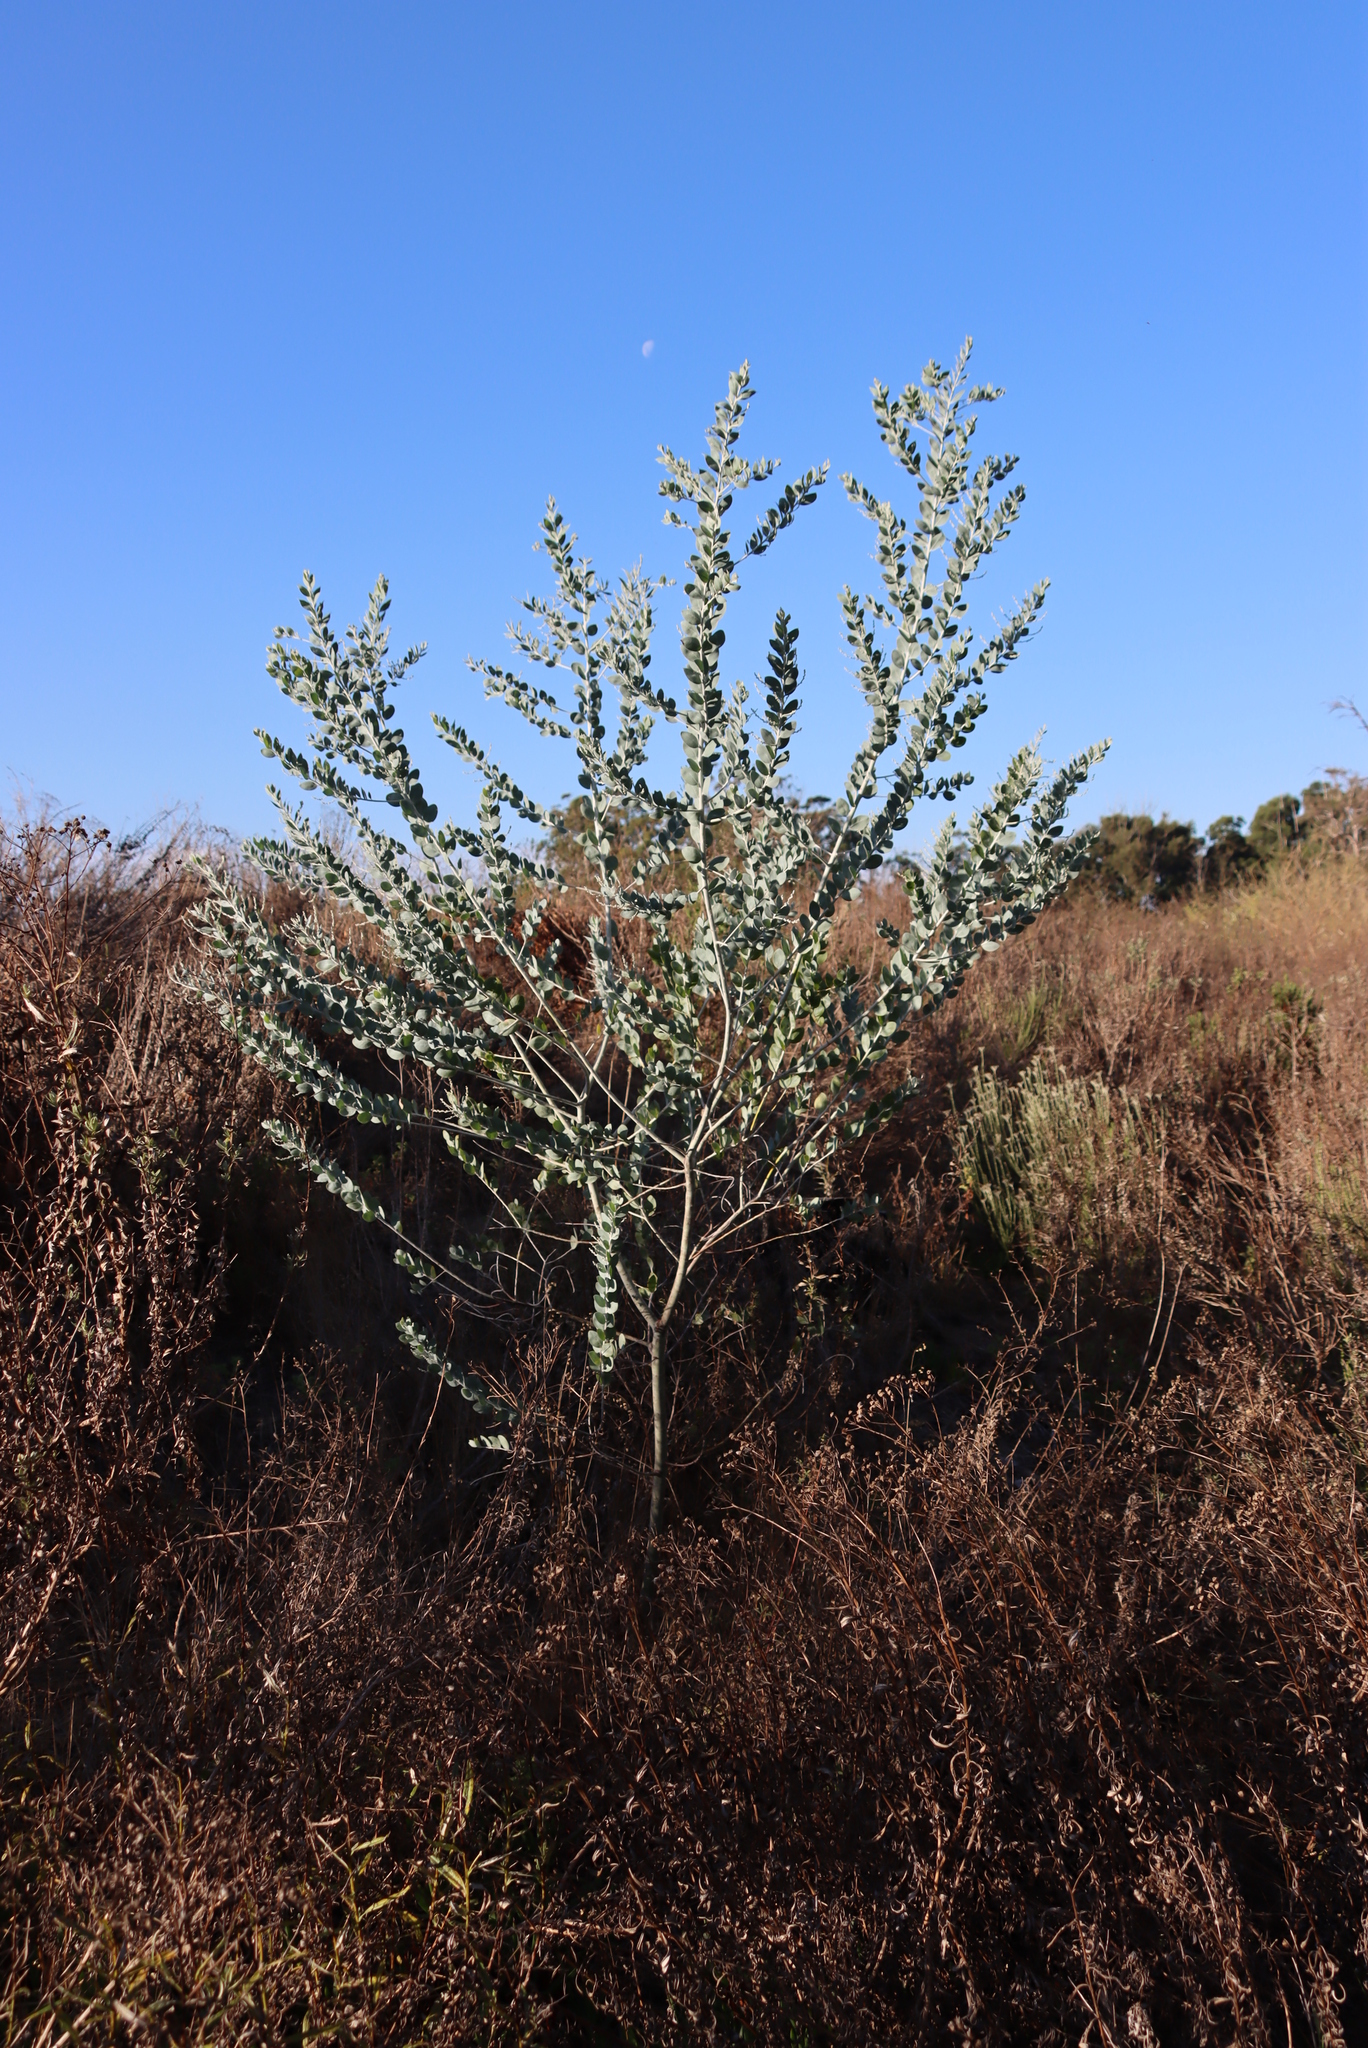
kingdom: Plantae
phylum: Tracheophyta
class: Magnoliopsida
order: Fabales
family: Fabaceae
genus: Acacia
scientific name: Acacia podalyriifolia
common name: Pearl wattle
